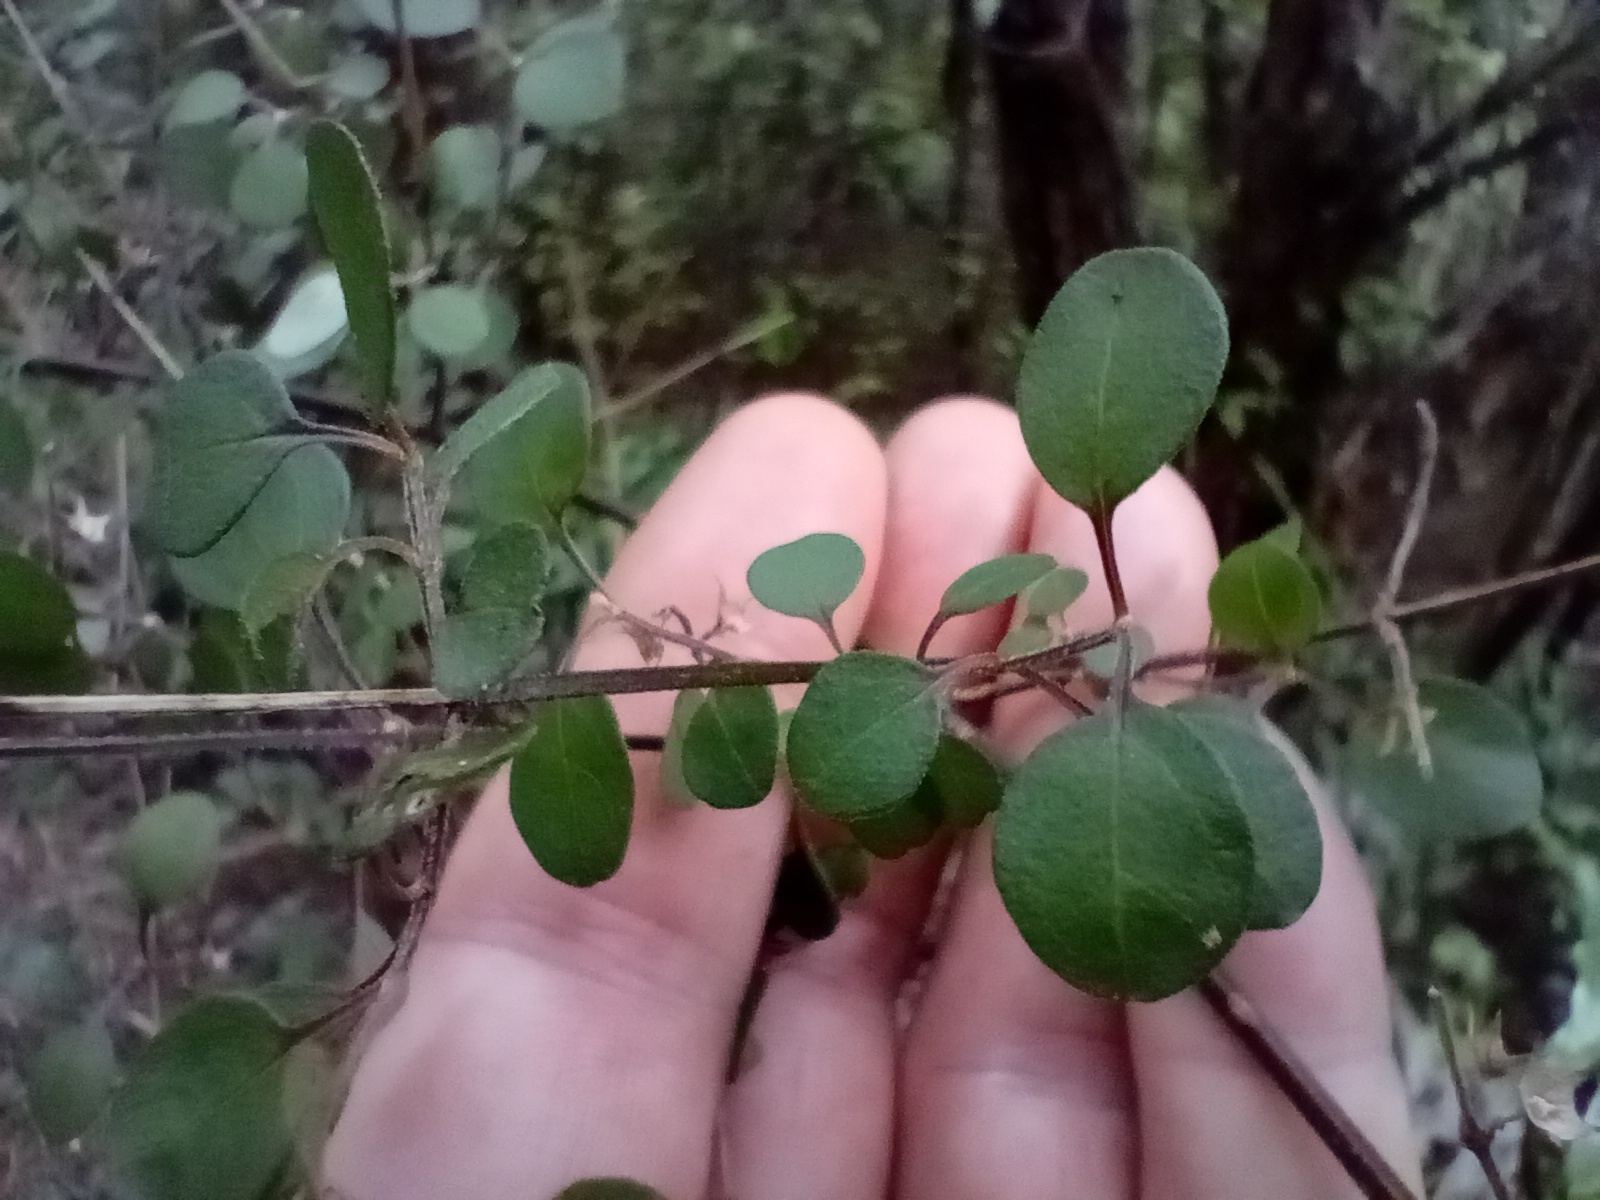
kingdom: Plantae
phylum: Tracheophyta
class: Magnoliopsida
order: Lamiales
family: Lamiaceae
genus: Teucrium
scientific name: Teucrium parvifolium
